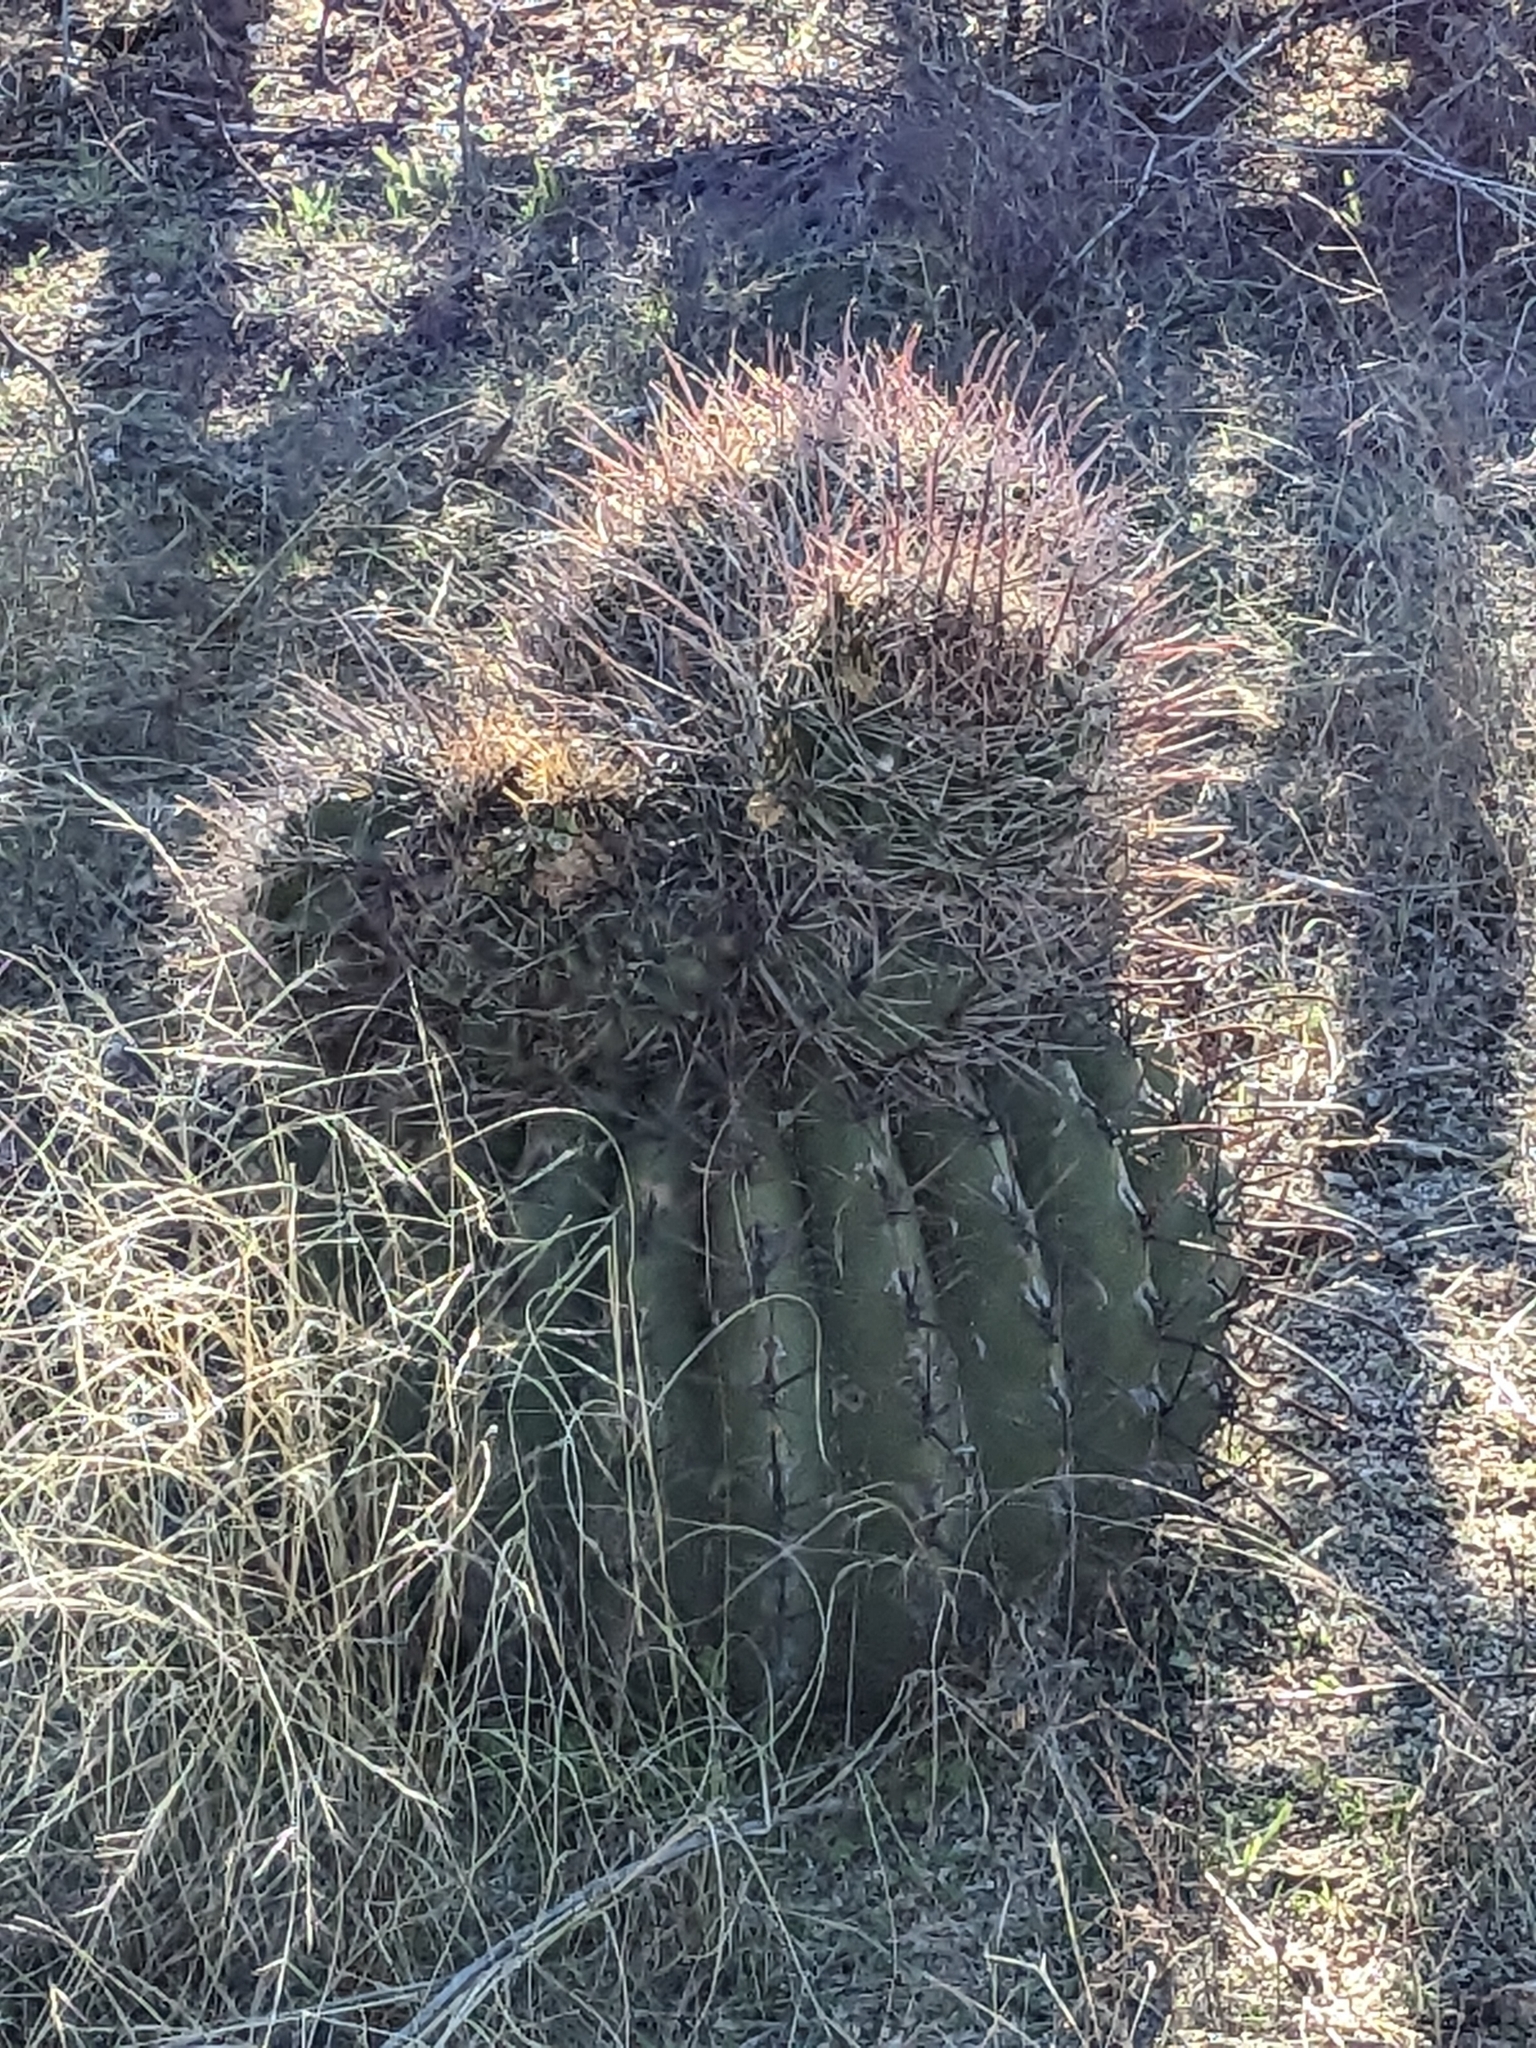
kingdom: Plantae
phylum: Tracheophyta
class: Magnoliopsida
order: Caryophyllales
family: Cactaceae
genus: Ferocactus
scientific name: Ferocactus wislizeni
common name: Candy barrel cactus
